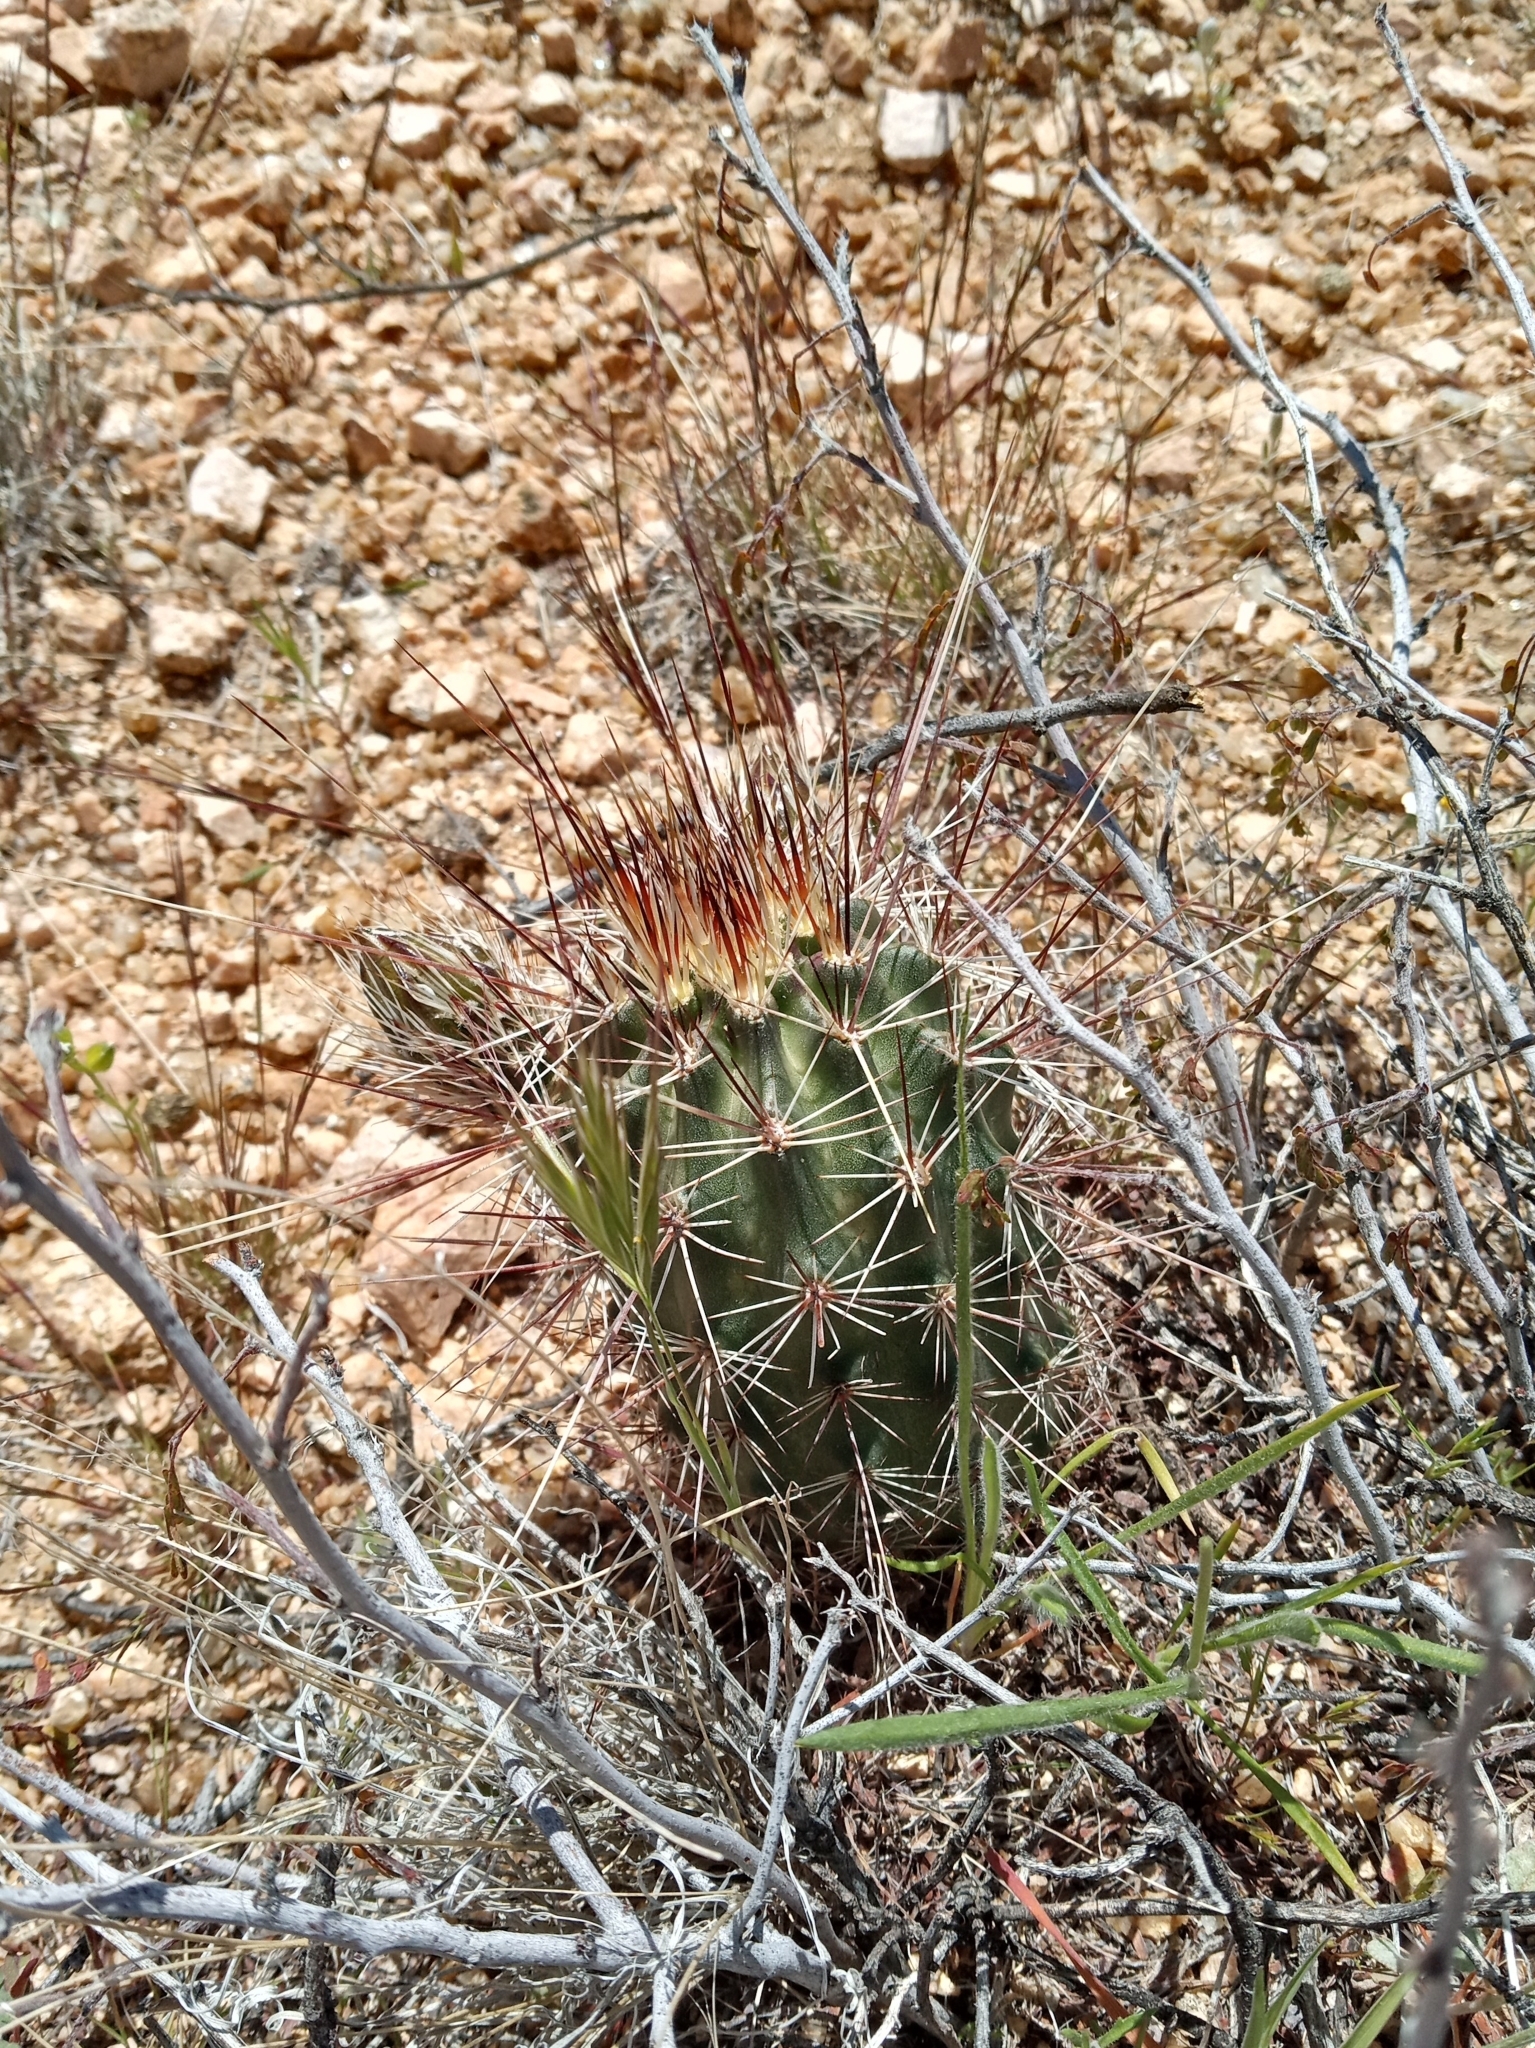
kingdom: Plantae
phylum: Tracheophyta
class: Magnoliopsida
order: Caryophyllales
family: Cactaceae
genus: Echinocereus
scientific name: Echinocereus engelmannii
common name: Engelmann's hedgehog cactus
